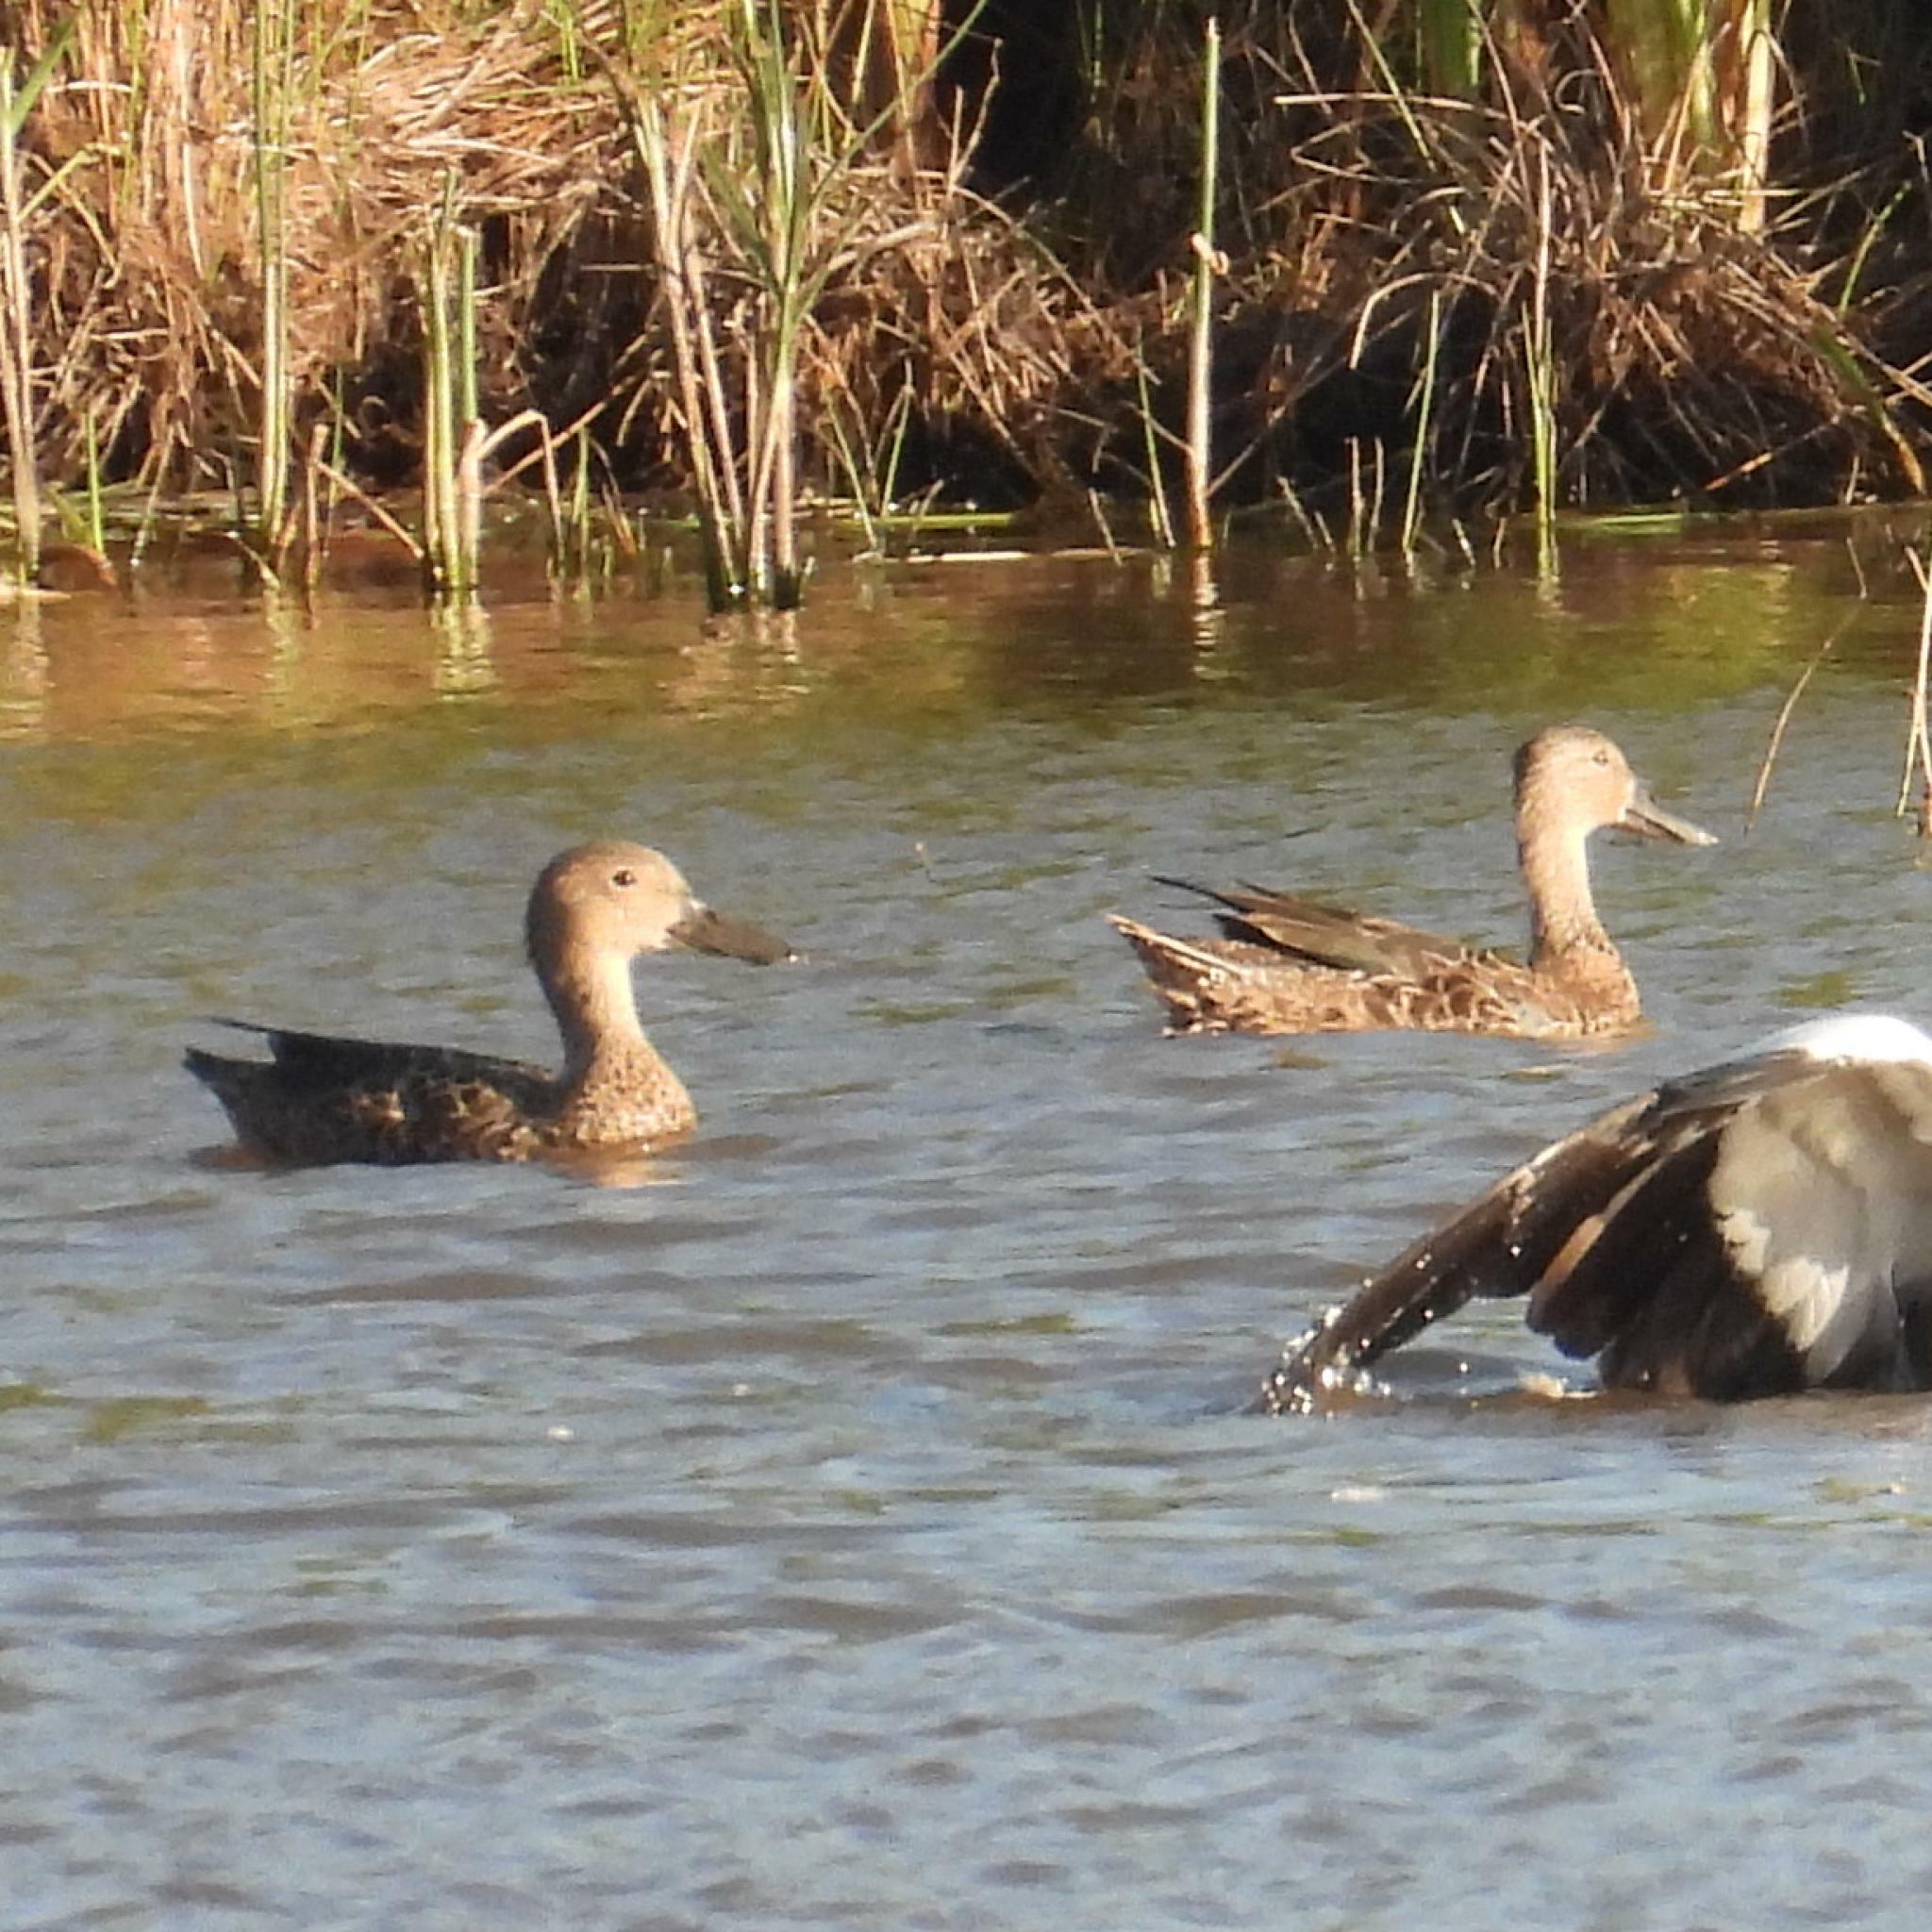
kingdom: Animalia
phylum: Chordata
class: Aves
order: Anseriformes
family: Anatidae
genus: Spatula
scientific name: Spatula smithii
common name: Cape shoveler
